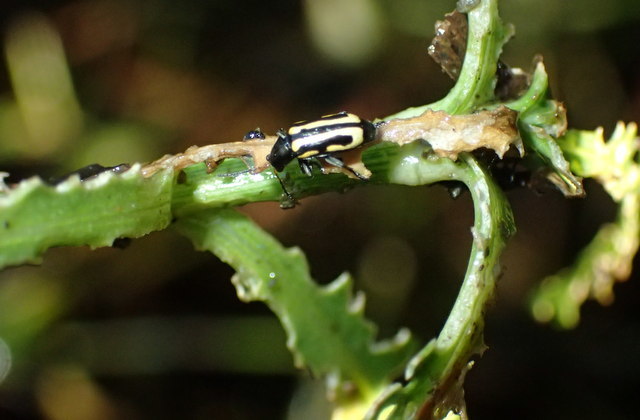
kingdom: Animalia
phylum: Arthropoda
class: Insecta
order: Coleoptera
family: Chrysomelidae
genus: Agasicles
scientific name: Agasicles hygrophila
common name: Alligatorweed flea beetle
